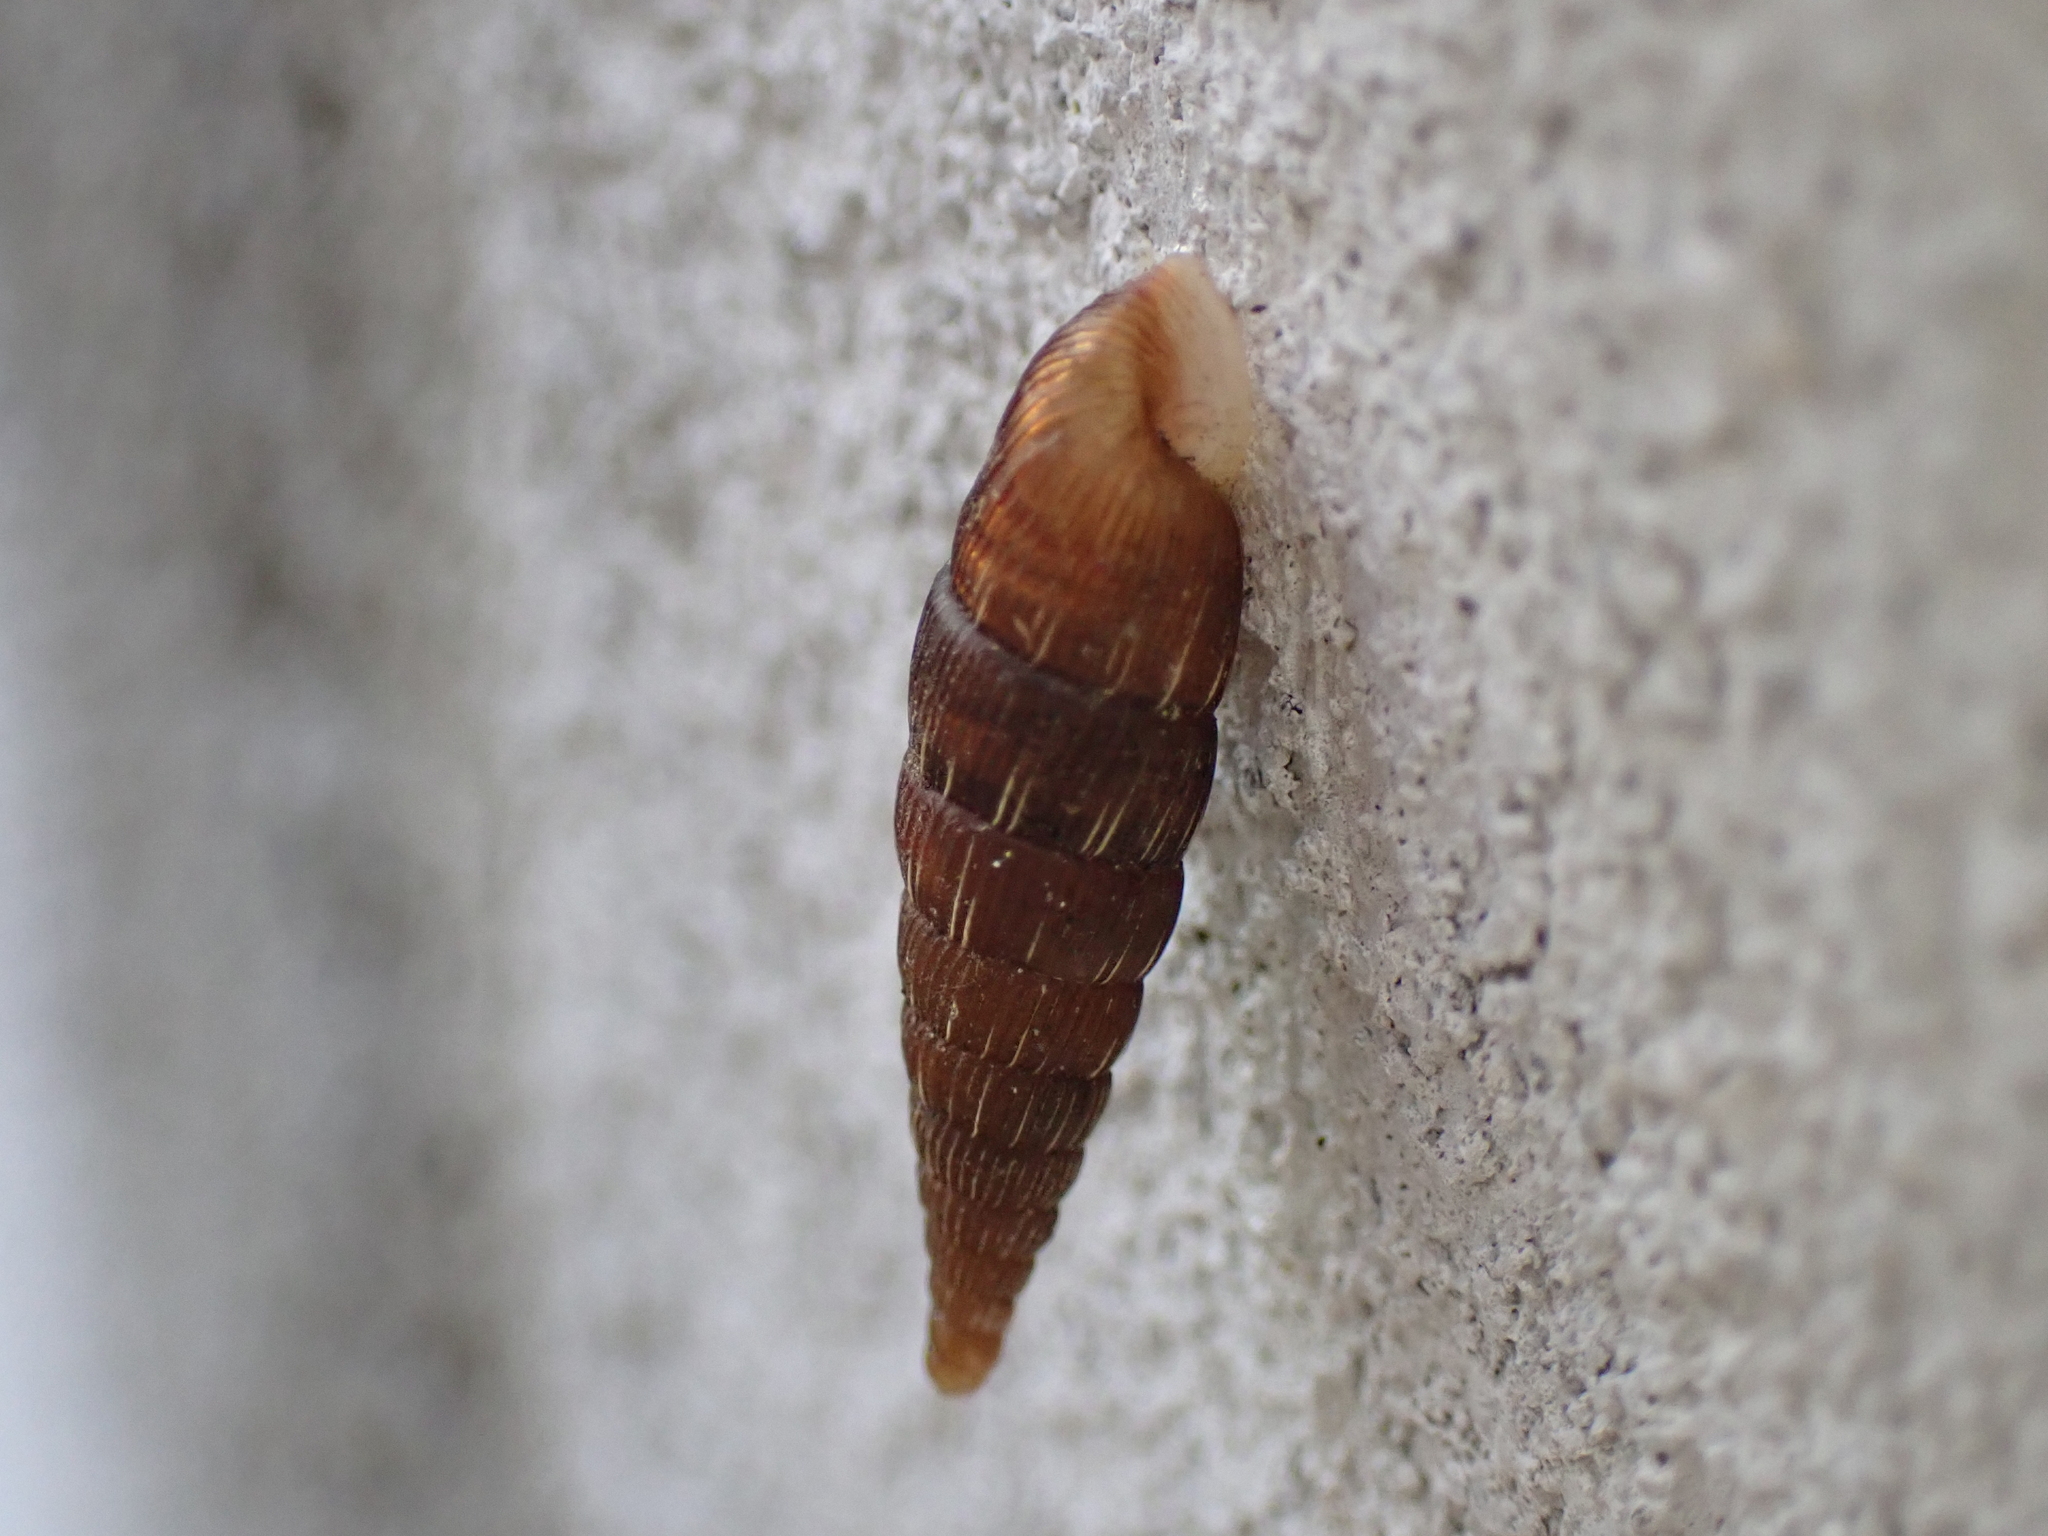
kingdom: Animalia
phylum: Mollusca
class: Gastropoda
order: Stylommatophora
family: Clausiliidae
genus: Alinda
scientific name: Alinda biplicata
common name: Thames door snail
